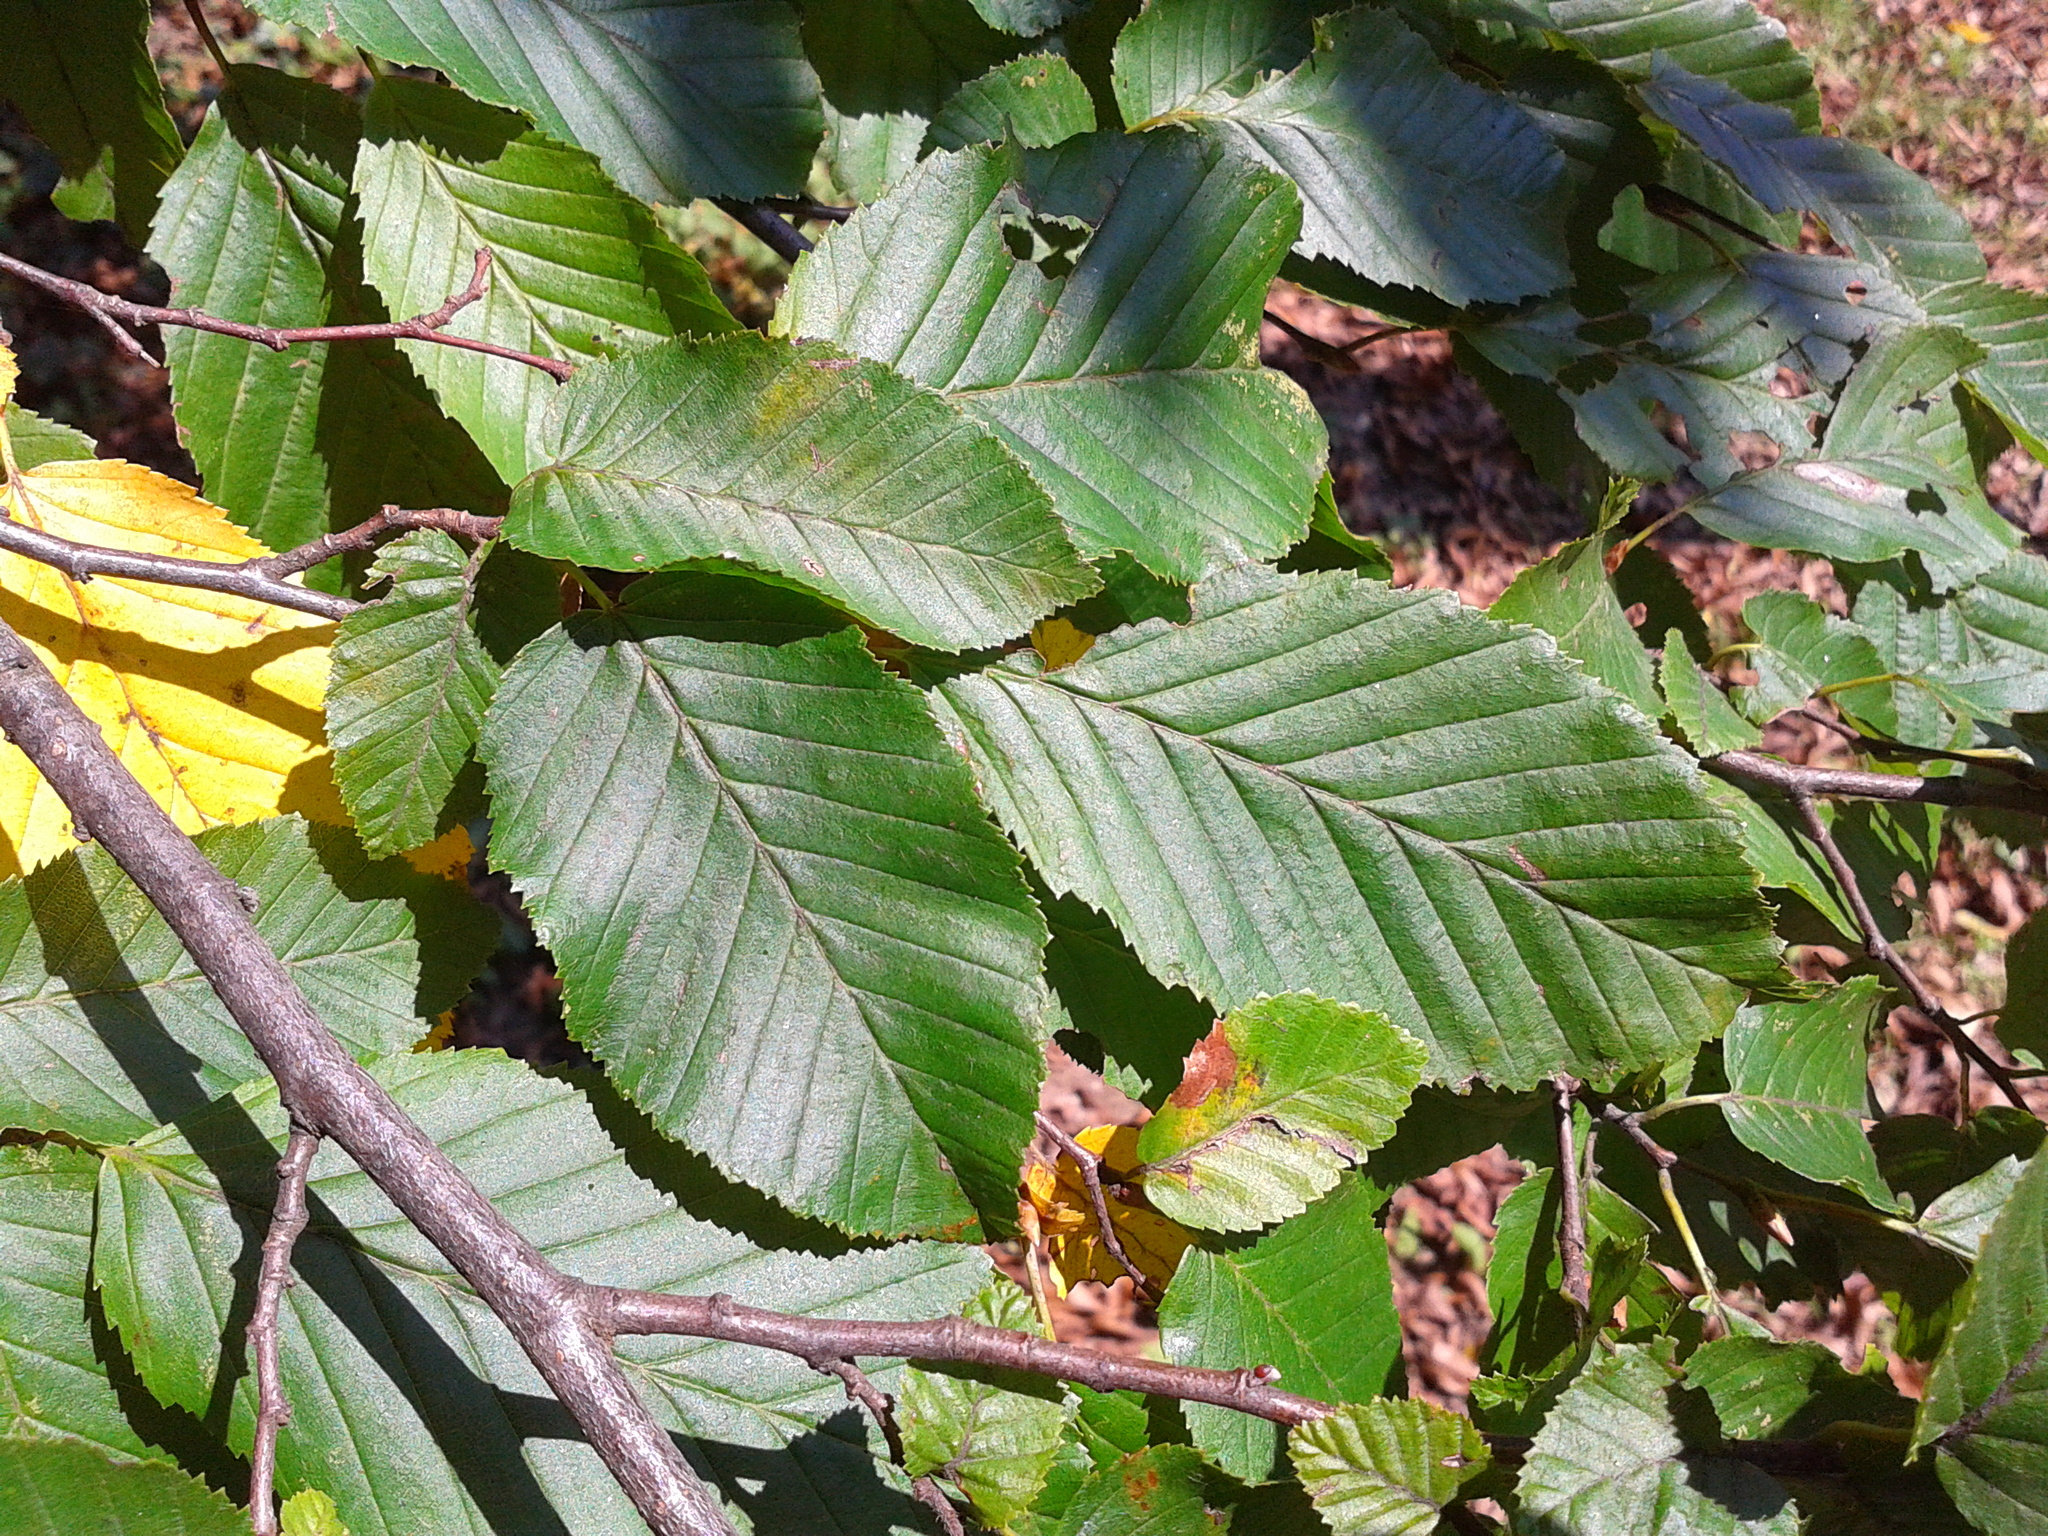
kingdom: Plantae
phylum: Tracheophyta
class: Magnoliopsida
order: Fagales
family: Betulaceae
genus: Carpinus
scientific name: Carpinus betulus
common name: Hornbeam
